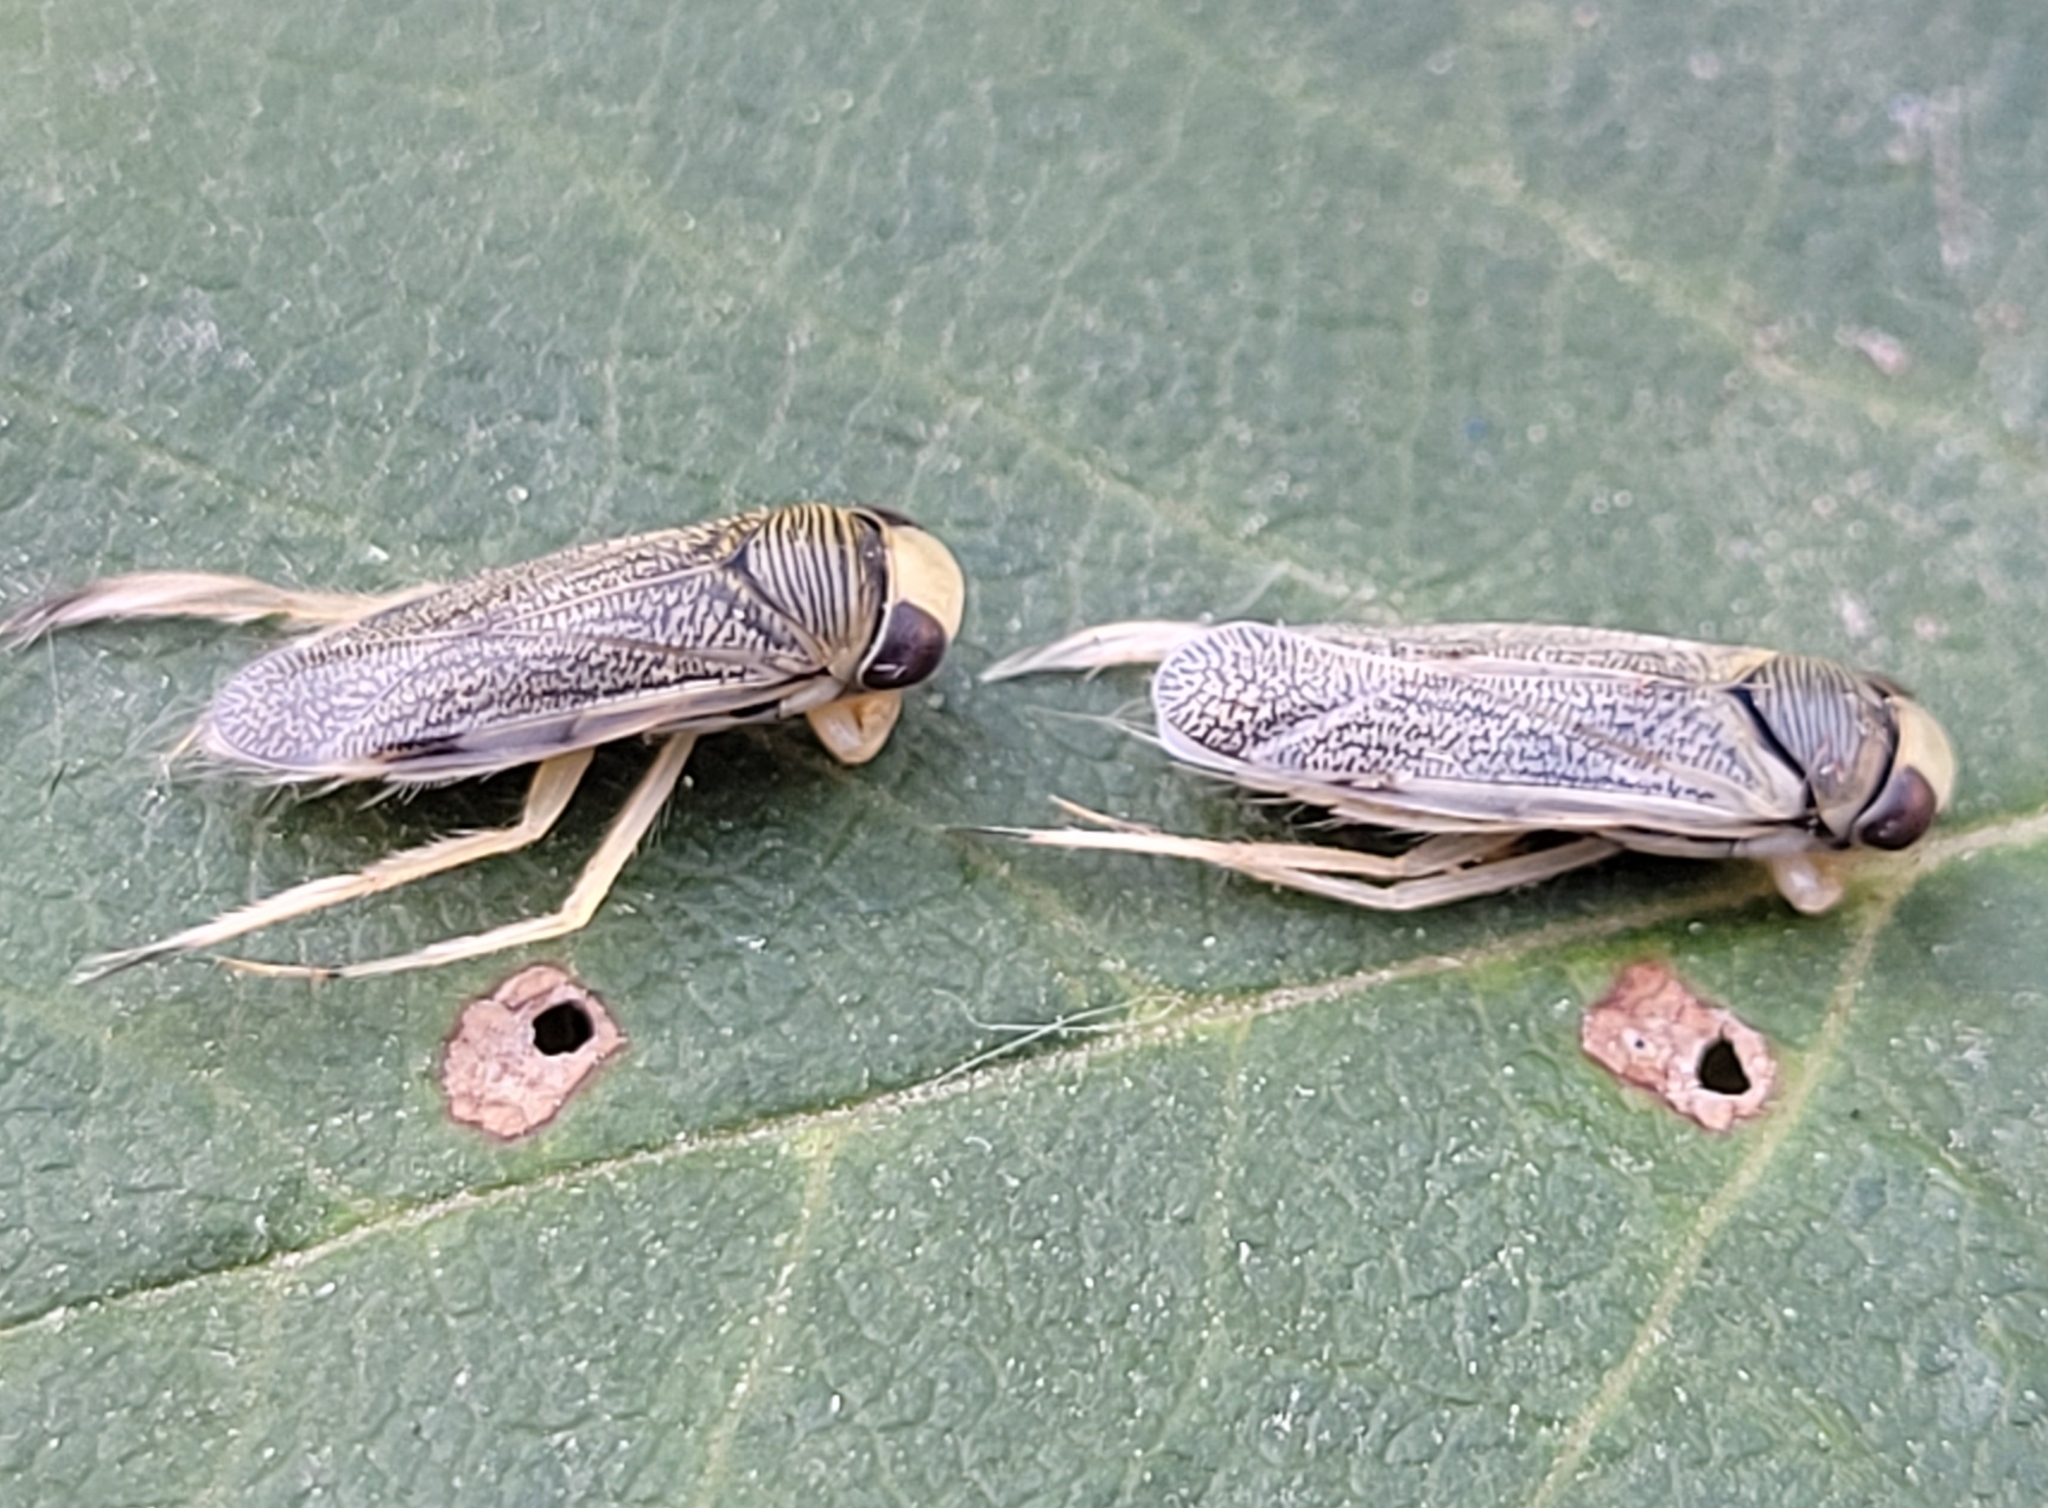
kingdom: Animalia
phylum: Arthropoda
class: Insecta
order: Hemiptera
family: Corixidae
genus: Cenocorixa
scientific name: Cenocorixa dakotensis
